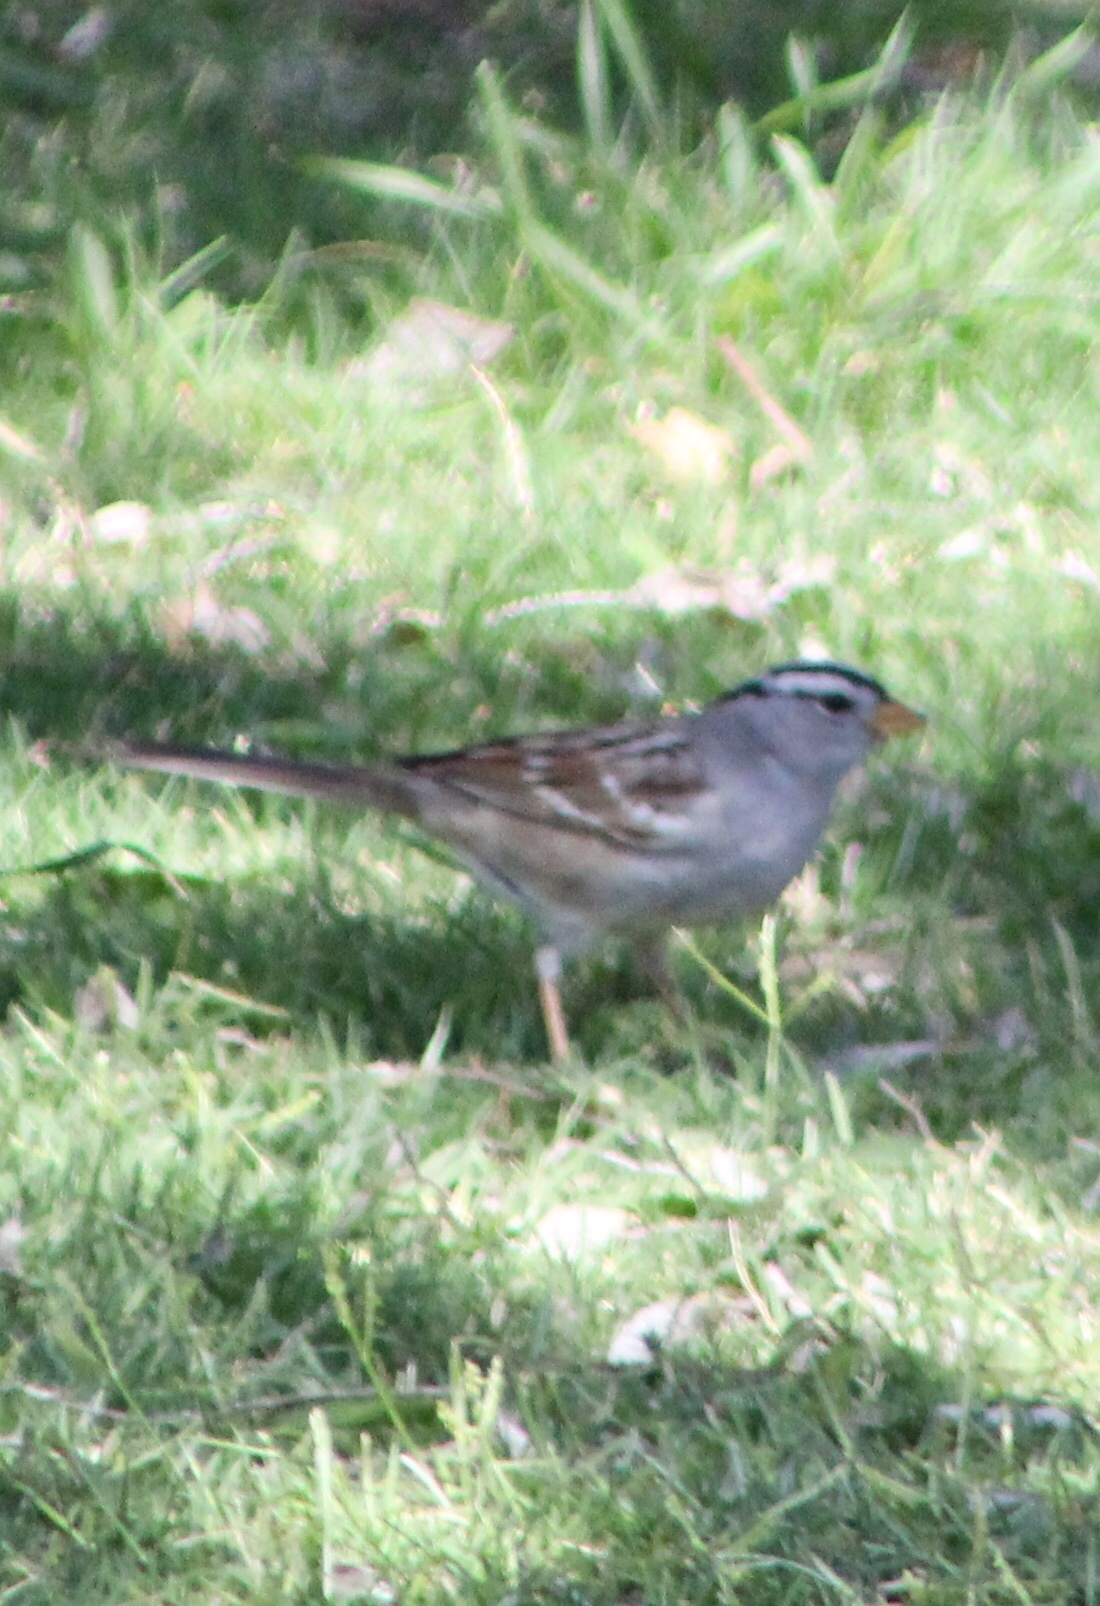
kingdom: Animalia
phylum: Chordata
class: Aves
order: Passeriformes
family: Passerellidae
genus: Zonotrichia
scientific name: Zonotrichia leucophrys
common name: White-crowned sparrow
